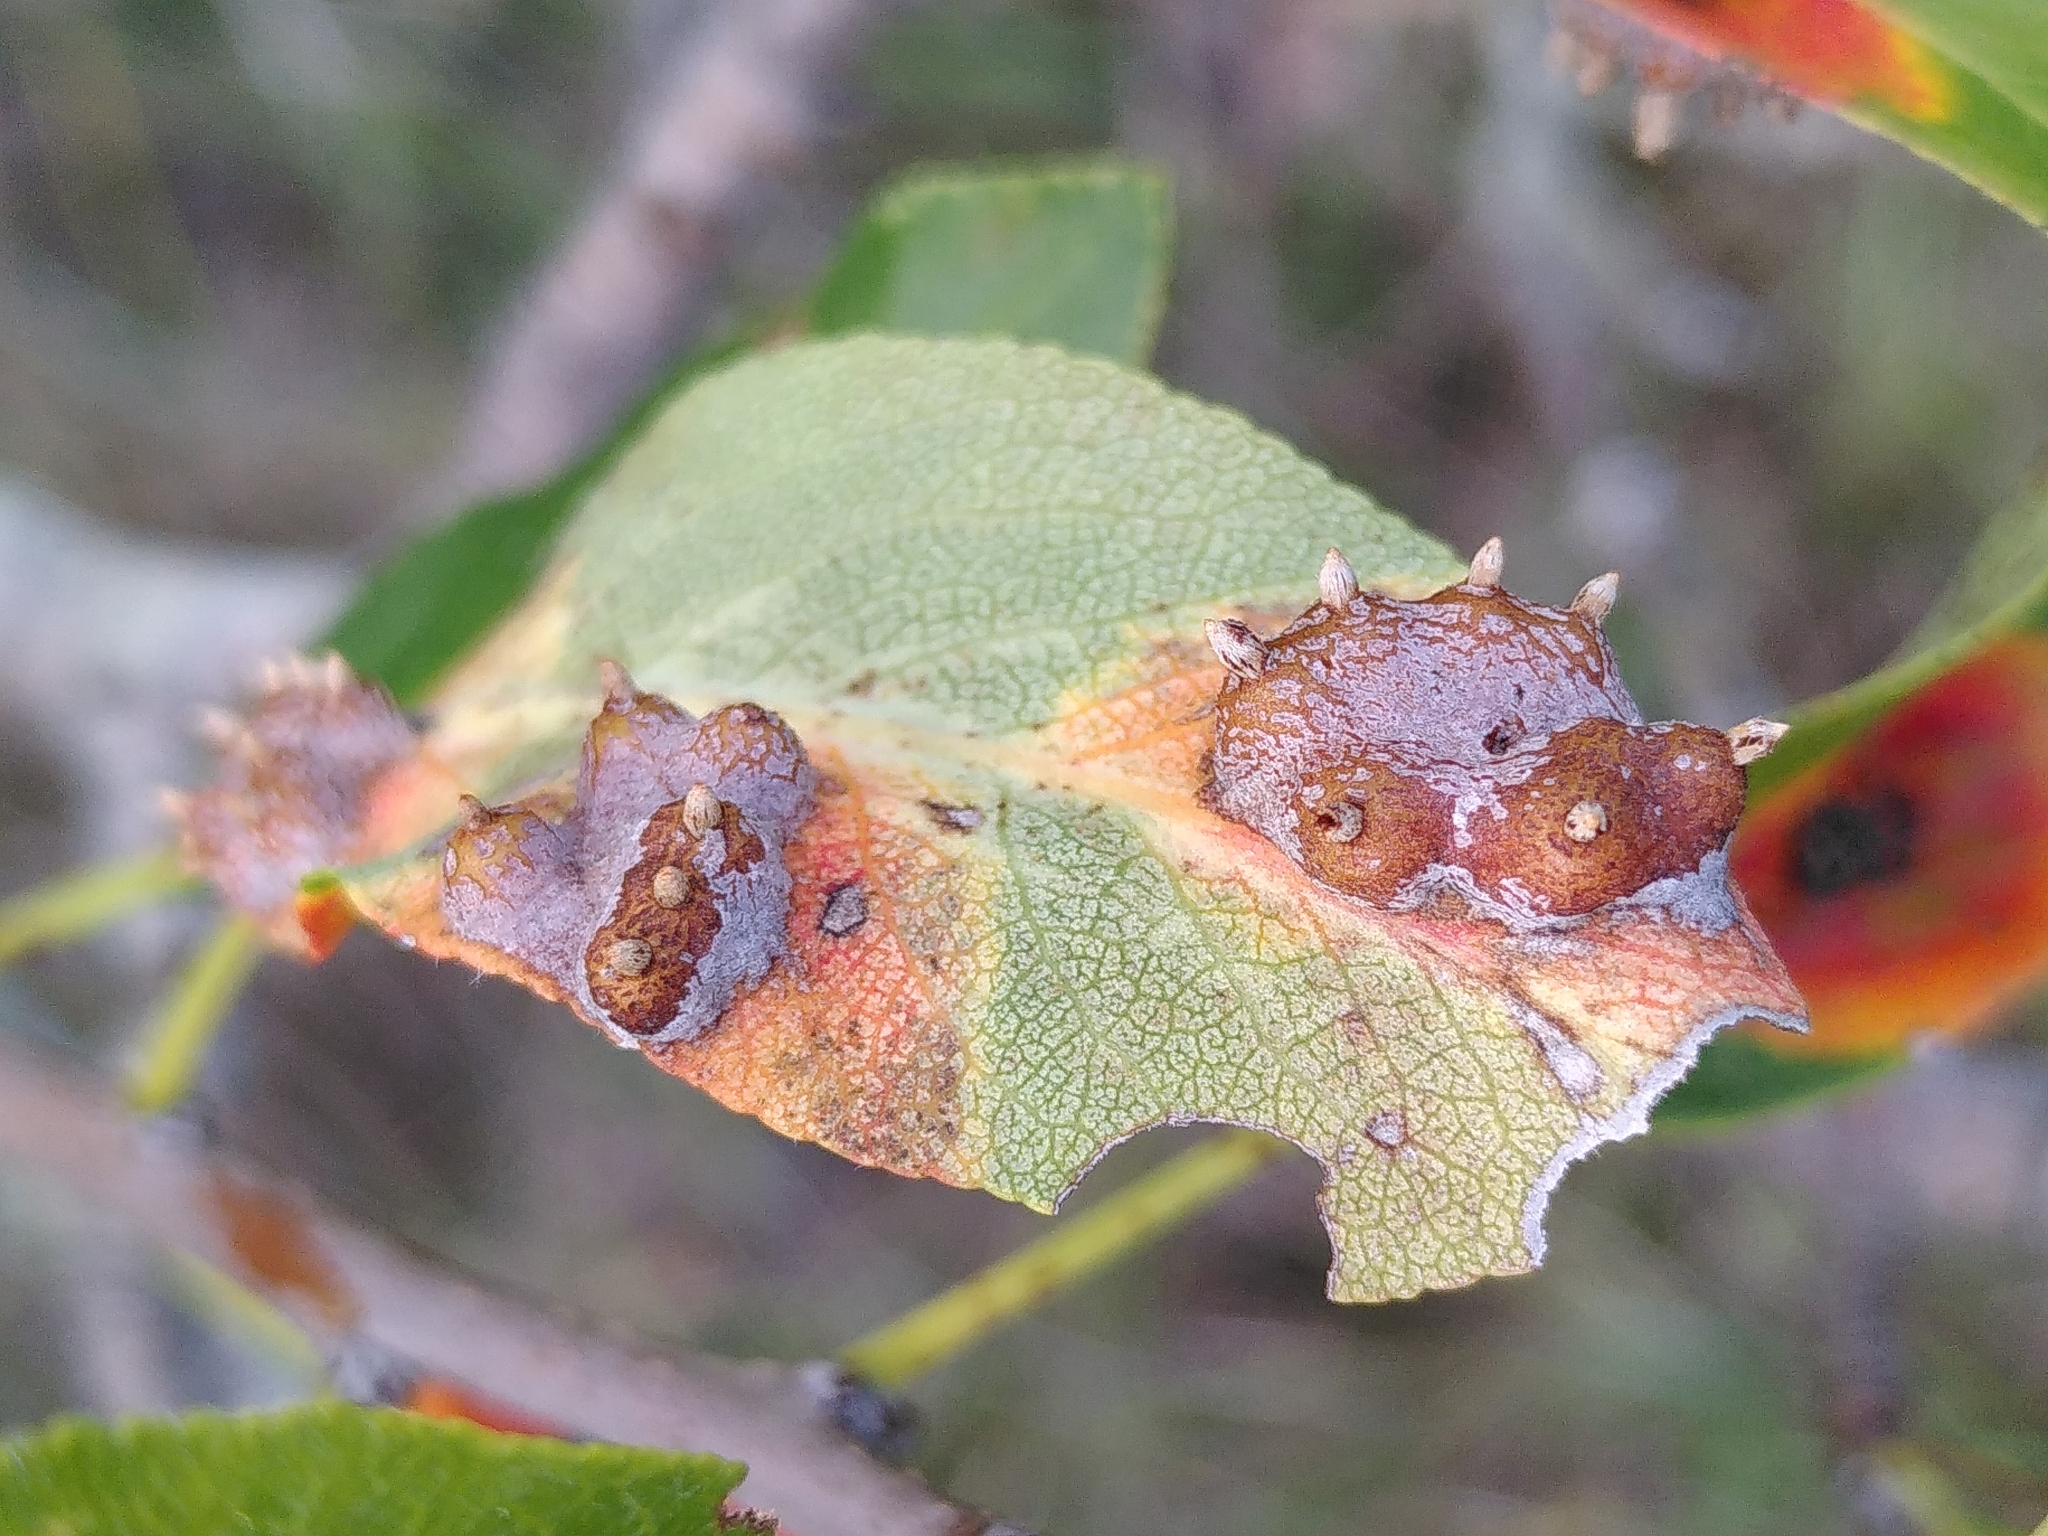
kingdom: Fungi
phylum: Basidiomycota
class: Pucciniomycetes
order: Pucciniales
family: Gymnosporangiaceae
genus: Gymnosporangium
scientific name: Gymnosporangium sabinae
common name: Pear trellis rust fungus
